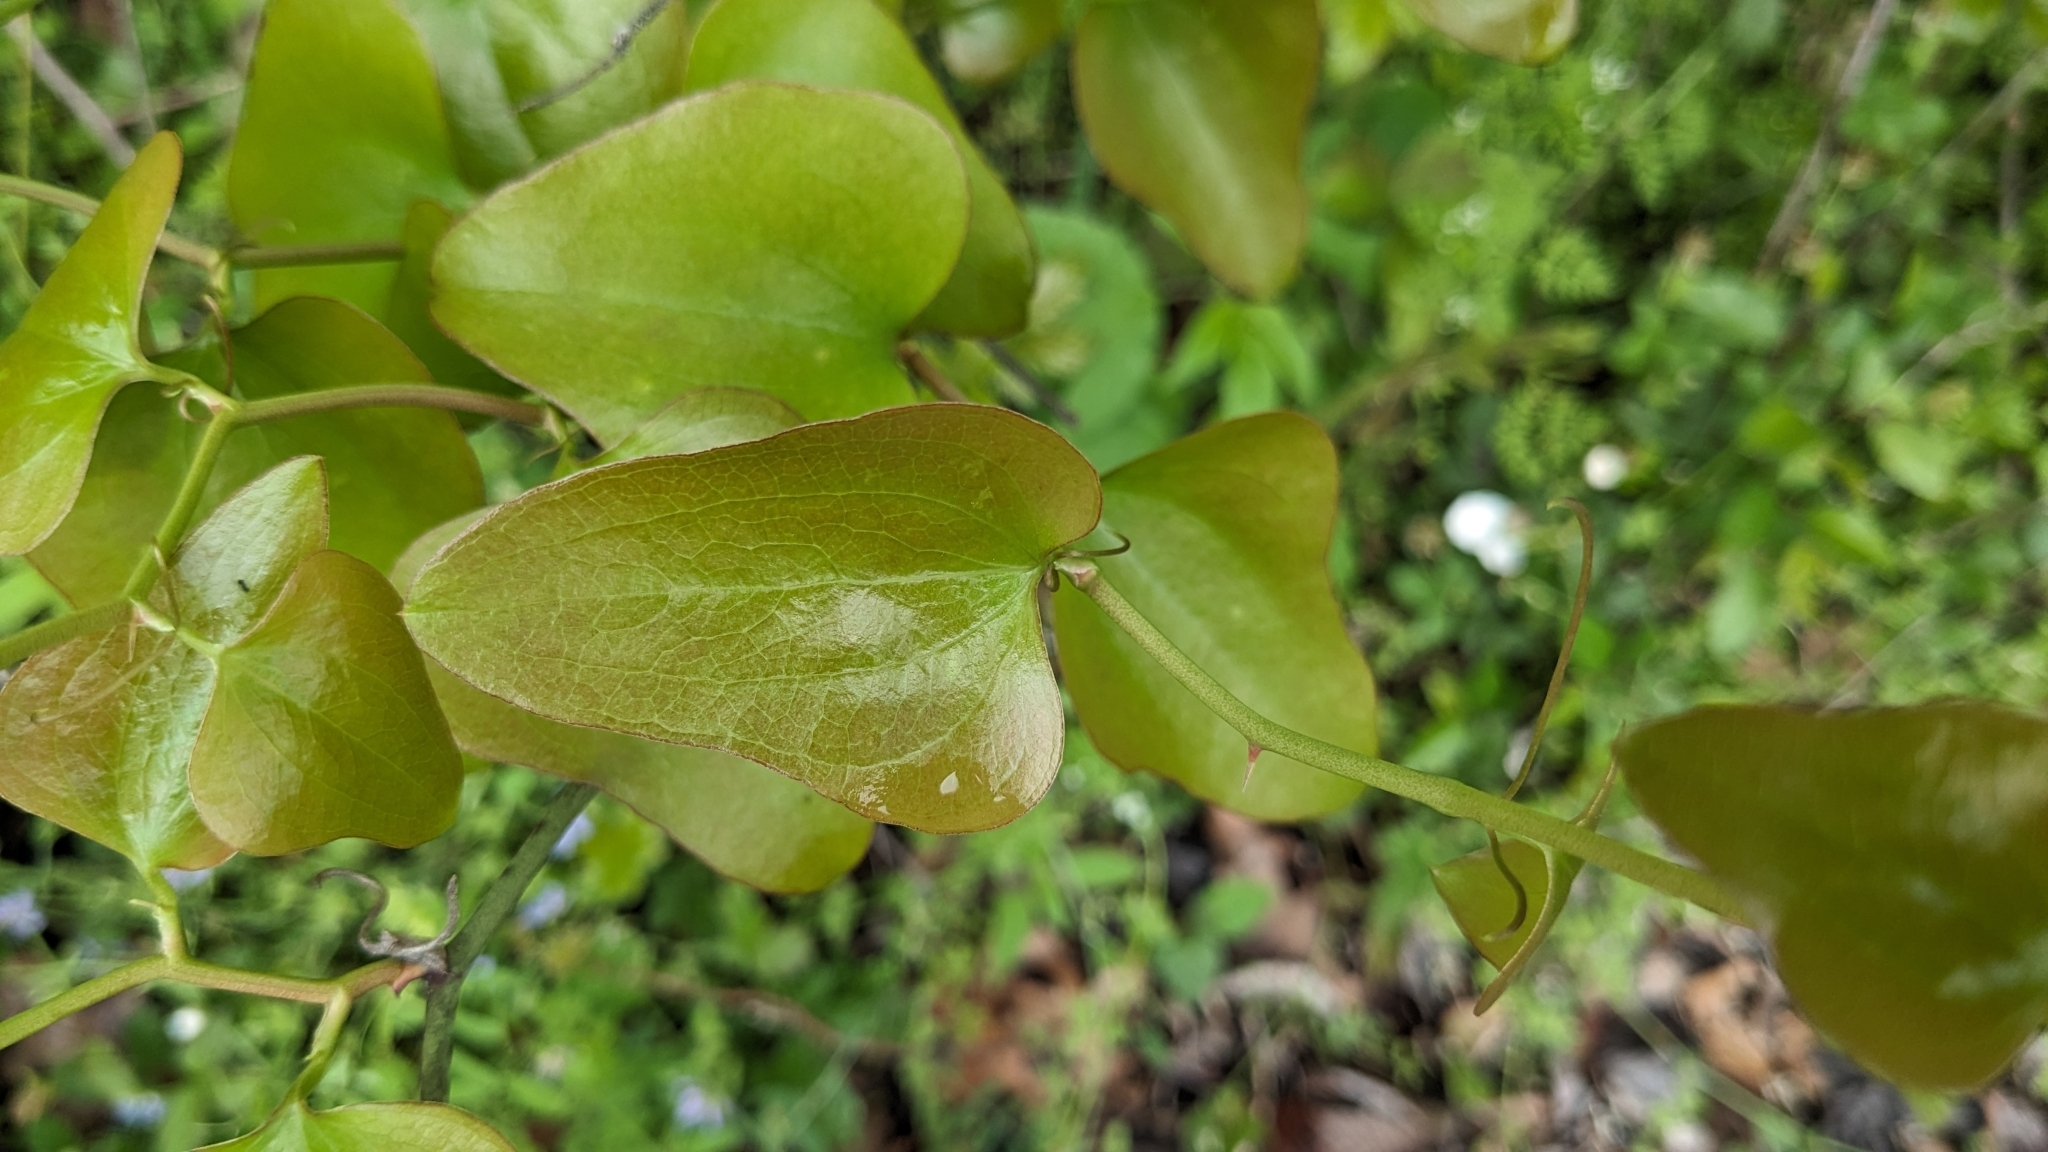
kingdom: Plantae
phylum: Tracheophyta
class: Liliopsida
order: Liliales
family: Smilacaceae
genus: Smilax
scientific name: Smilax bona-nox
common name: Catbrier
